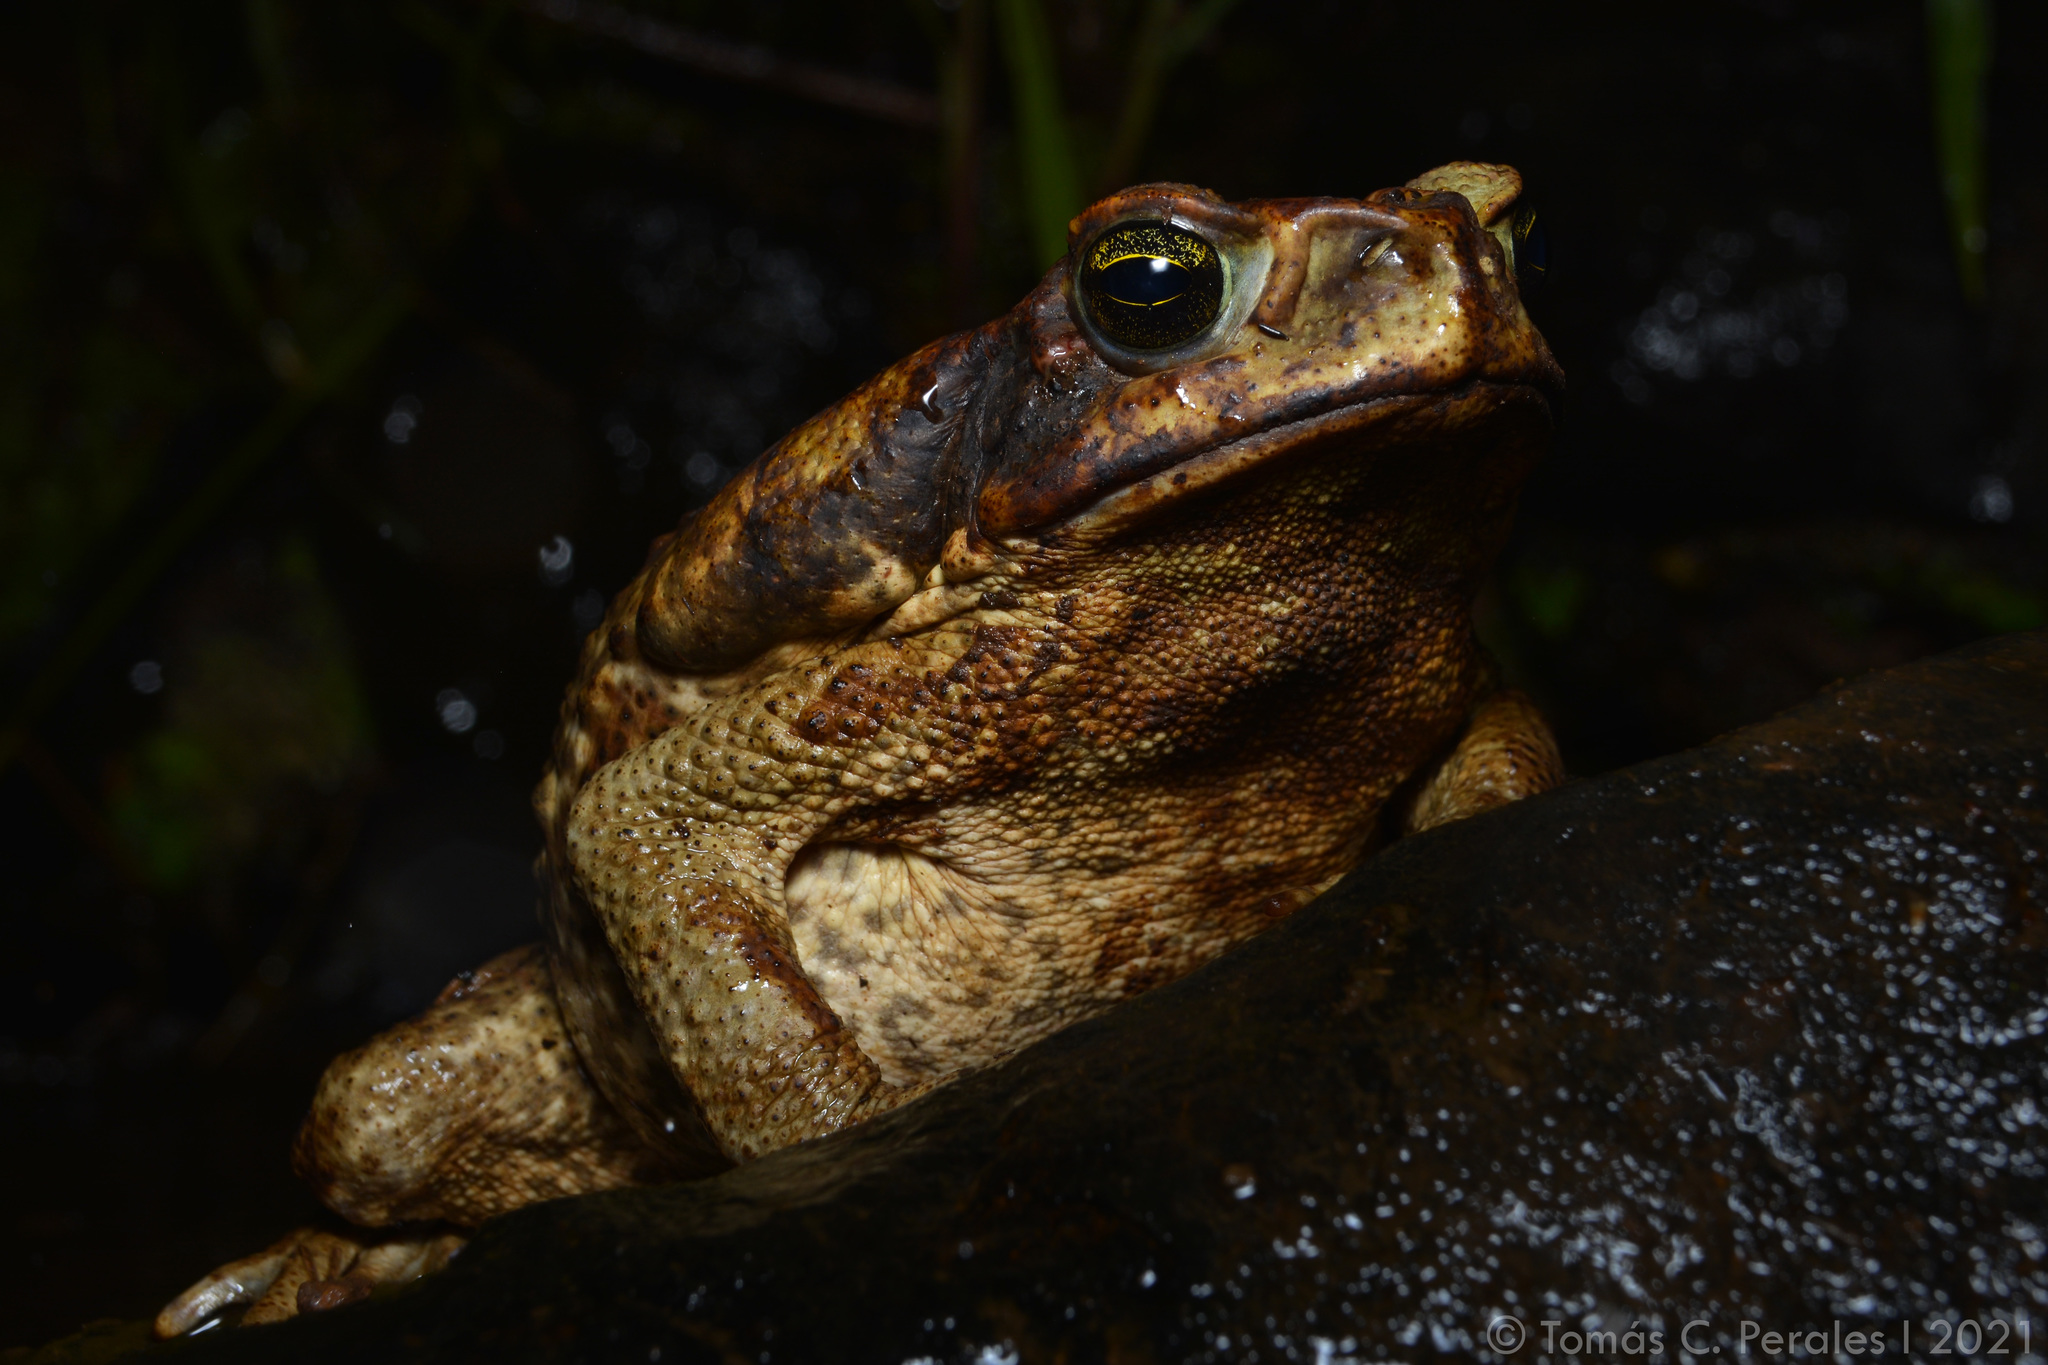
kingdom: Animalia
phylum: Chordata
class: Amphibia
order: Anura
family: Bufonidae
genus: Rhinella
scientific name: Rhinella diptycha
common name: Cope's toad
